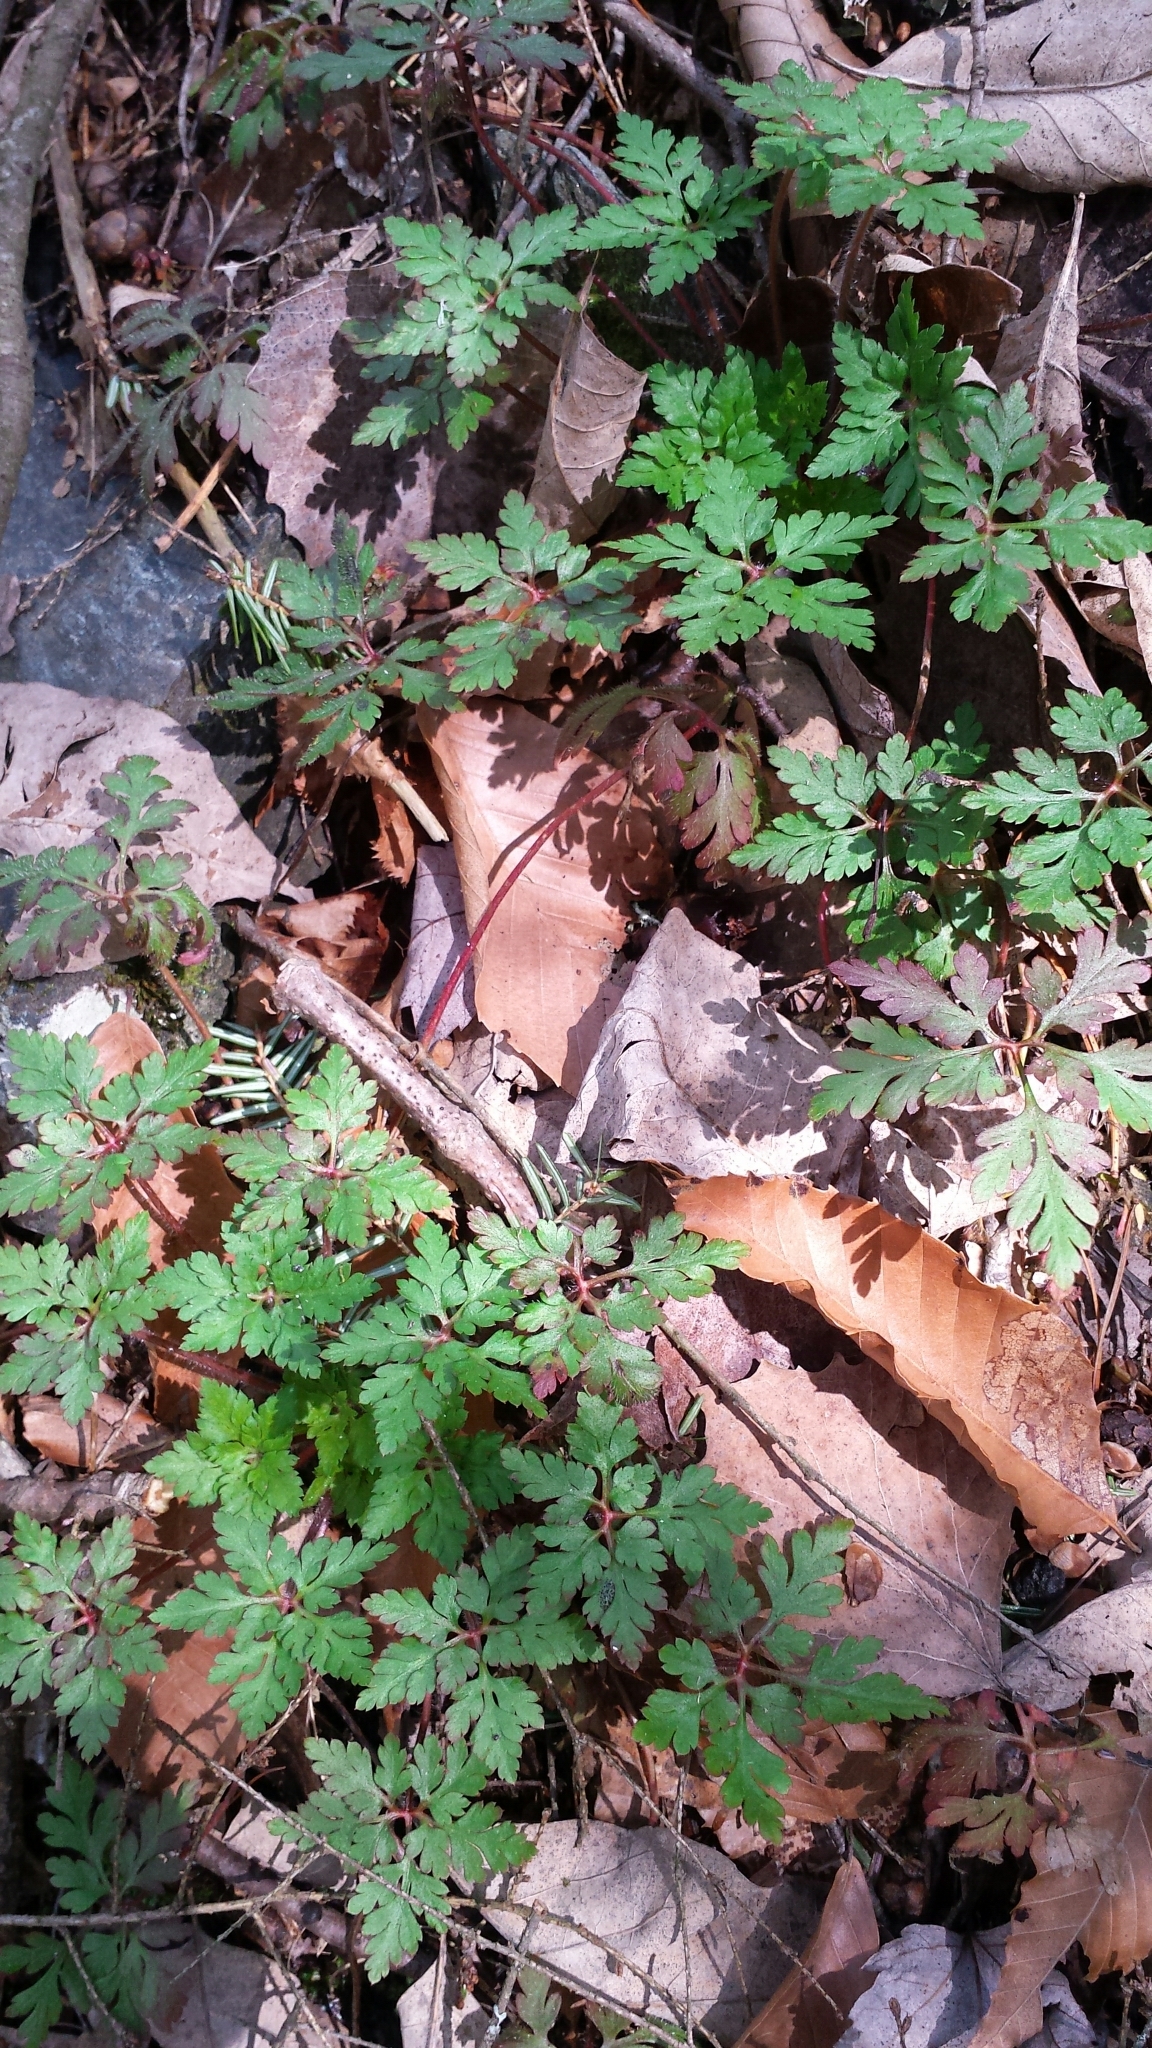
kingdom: Plantae
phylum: Tracheophyta
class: Magnoliopsida
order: Geraniales
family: Geraniaceae
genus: Geranium
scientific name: Geranium robertianum
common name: Herb-robert
